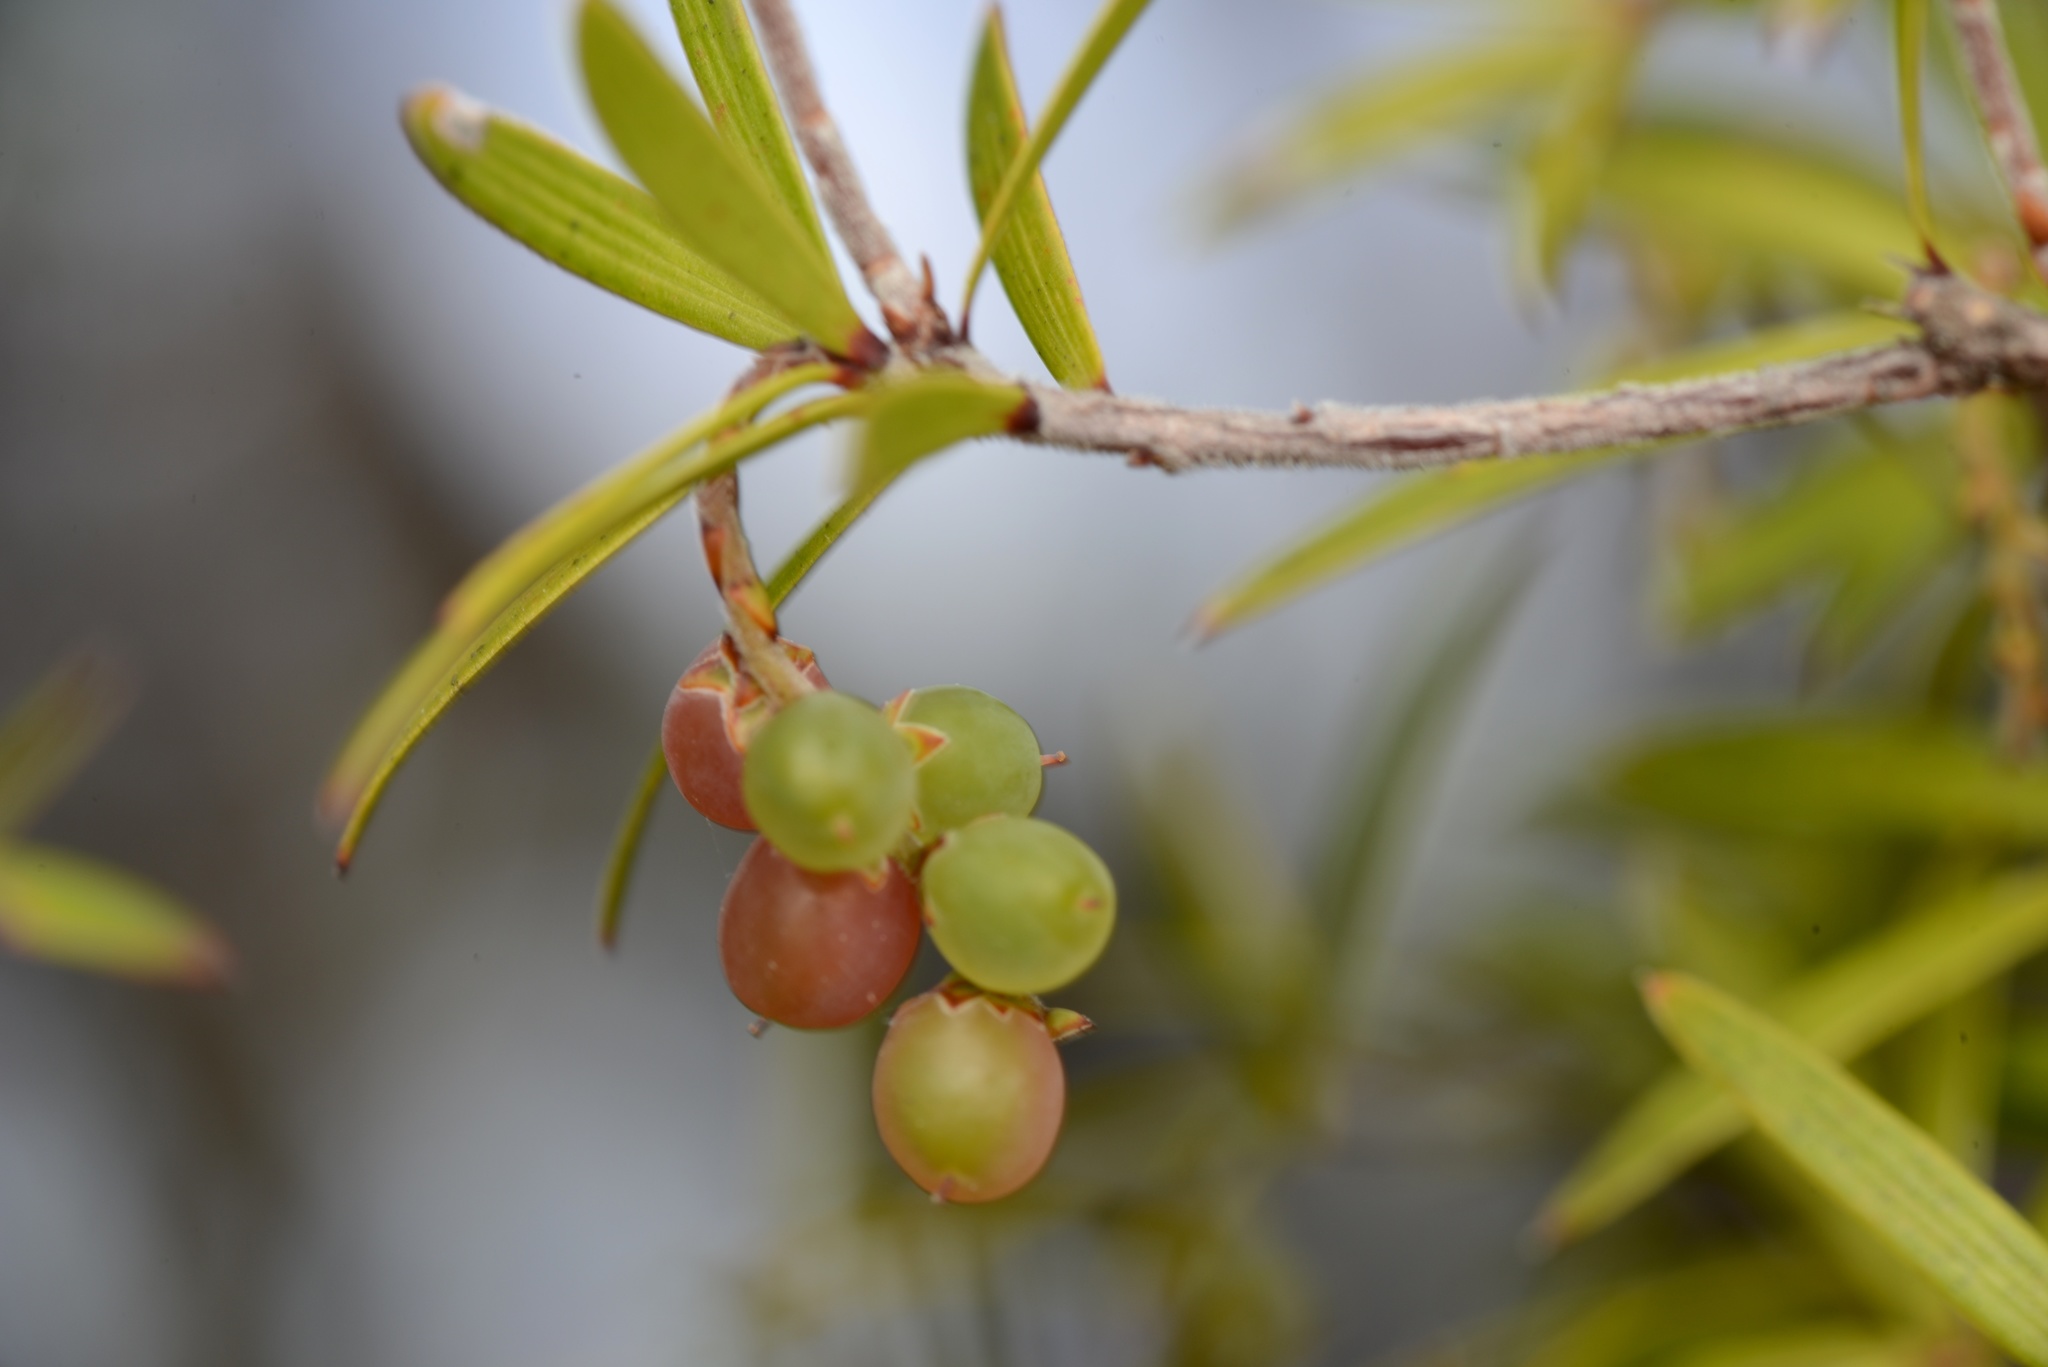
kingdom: Plantae
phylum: Tracheophyta
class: Magnoliopsida
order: Ericales
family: Ericaceae
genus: Leucopogon
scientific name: Leucopogon fasciculatus
